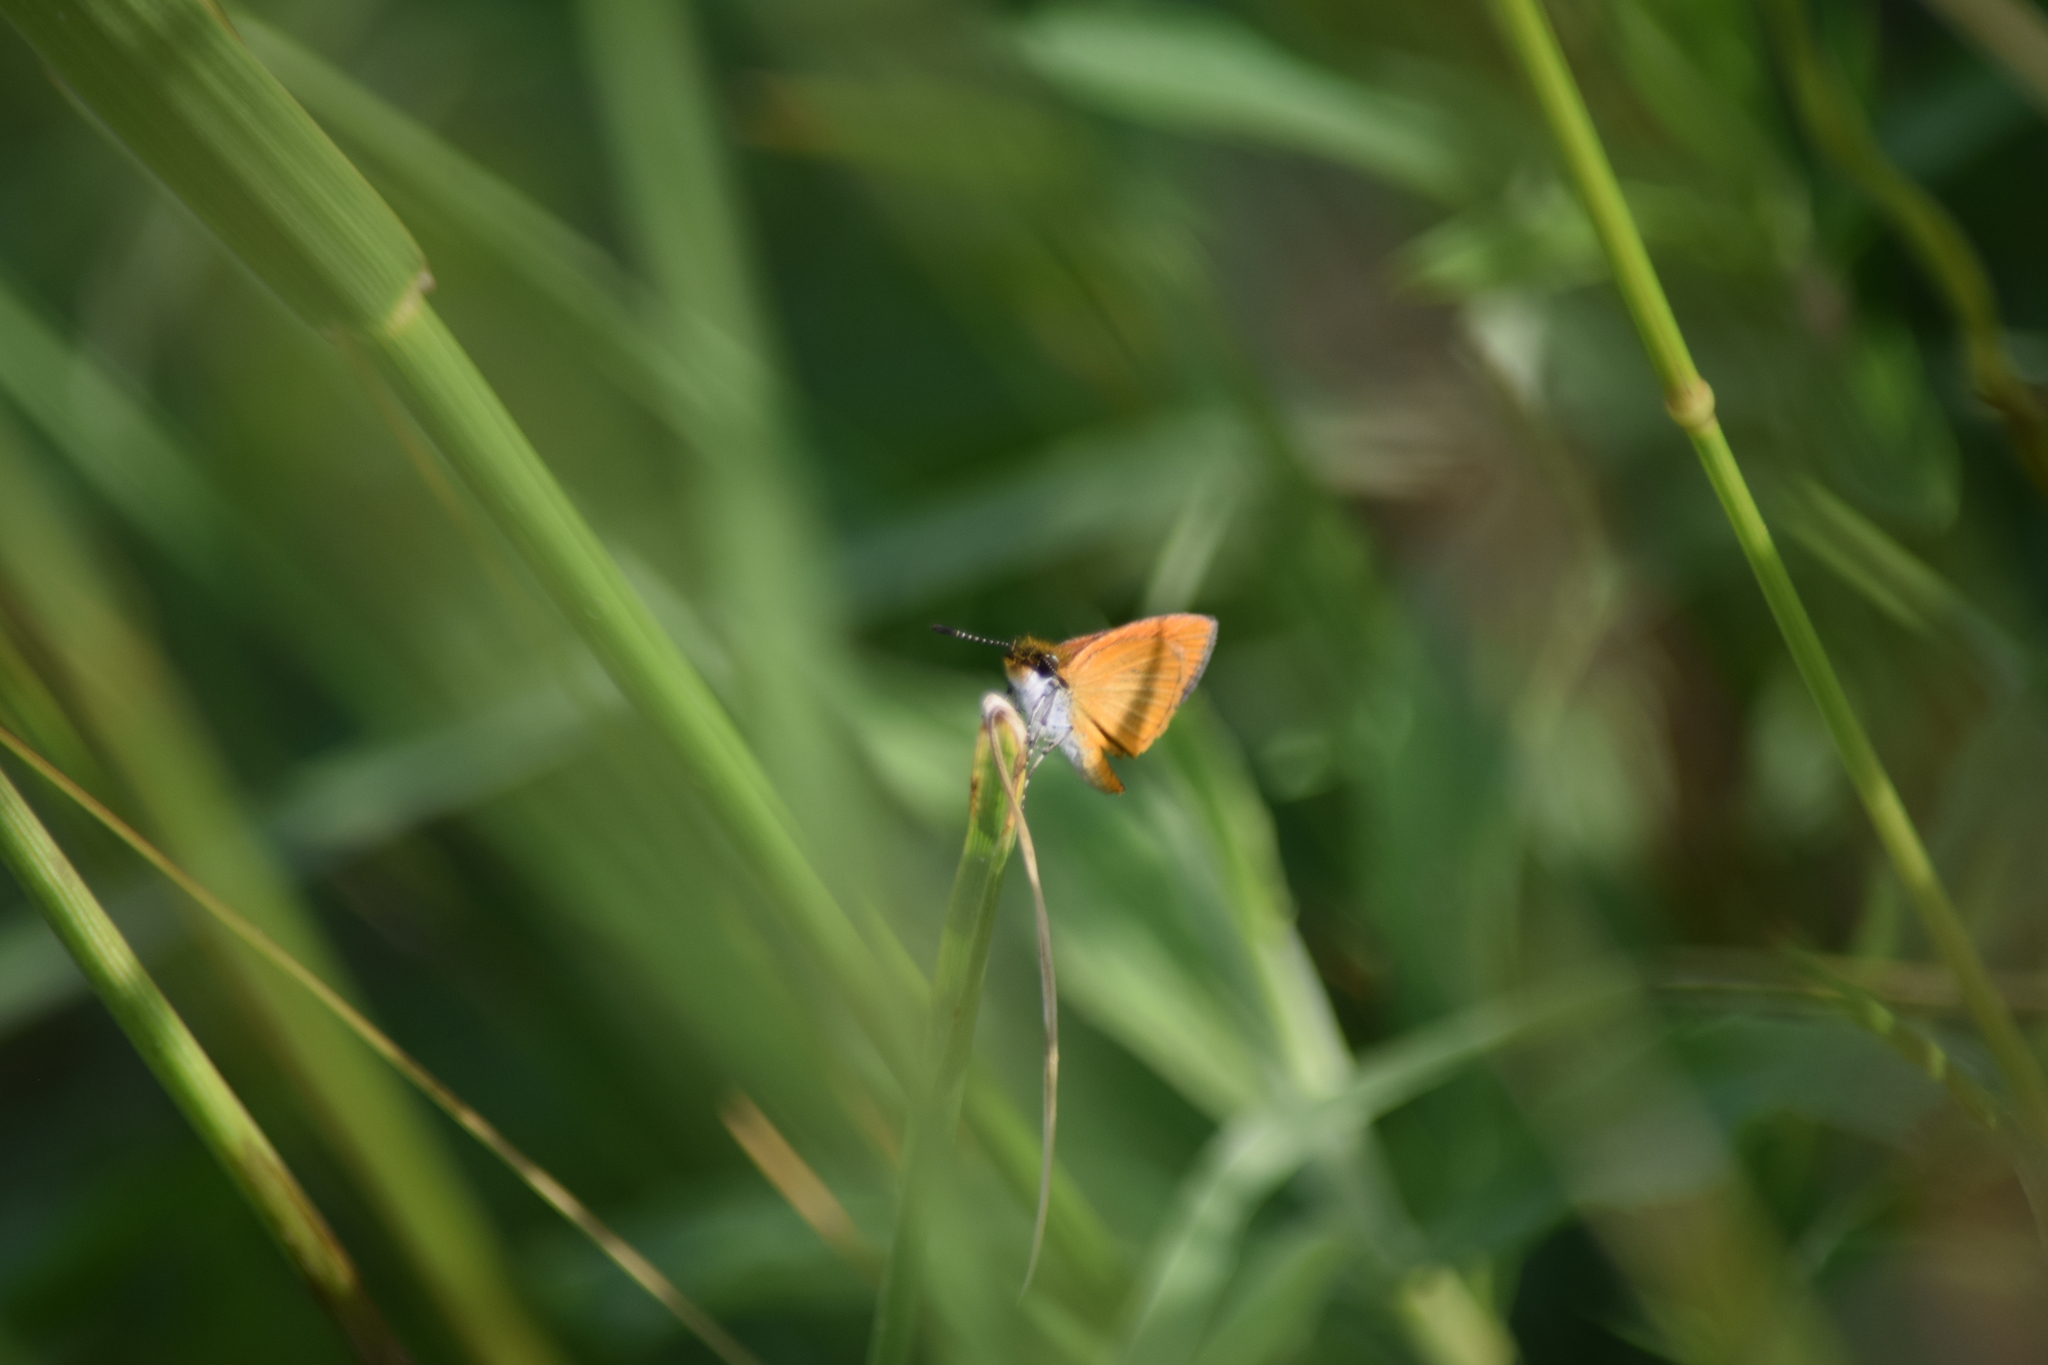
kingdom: Animalia
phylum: Arthropoda
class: Insecta
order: Lepidoptera
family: Hesperiidae
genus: Ancyloxypha
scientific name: Ancyloxypha numitor
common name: Least skipper
